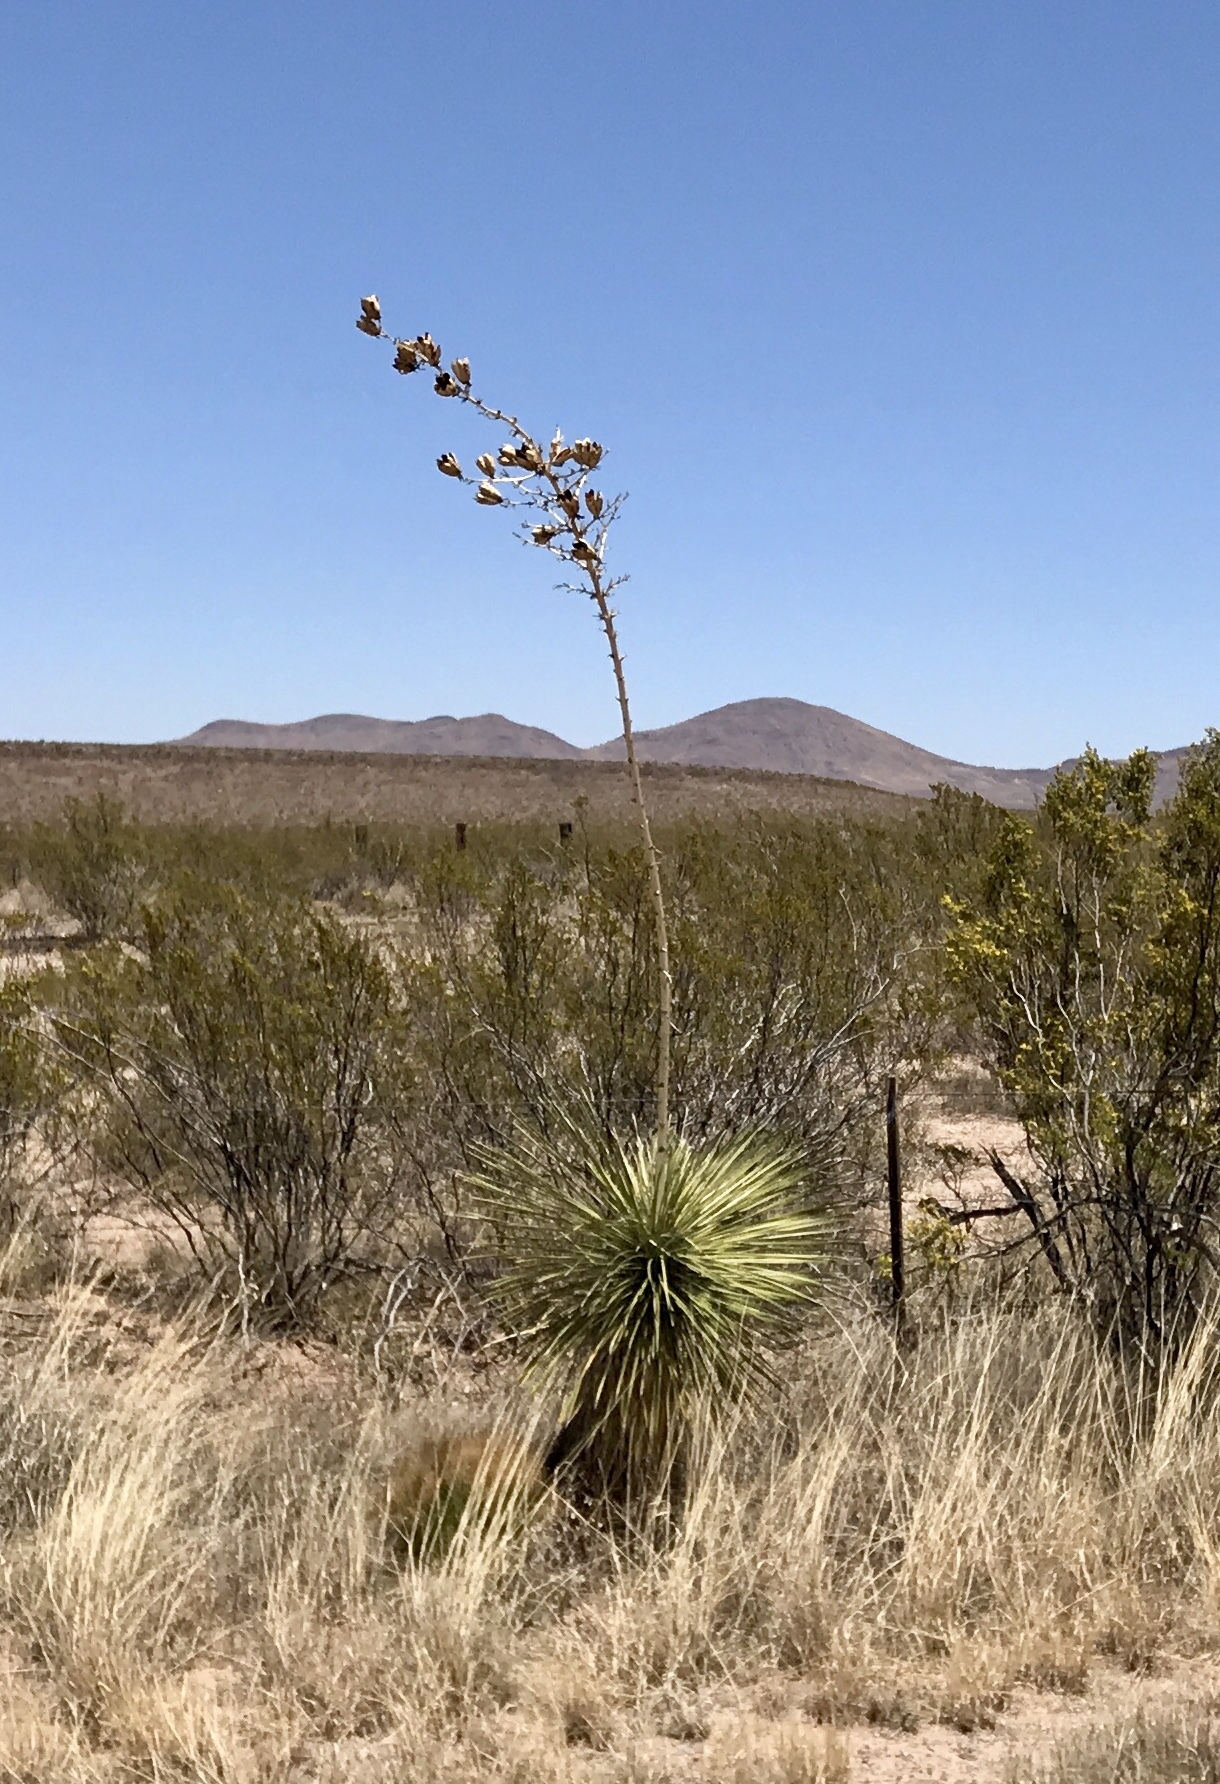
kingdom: Plantae
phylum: Tracheophyta
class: Liliopsida
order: Asparagales
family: Asparagaceae
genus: Yucca
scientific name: Yucca elata
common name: Palmella
